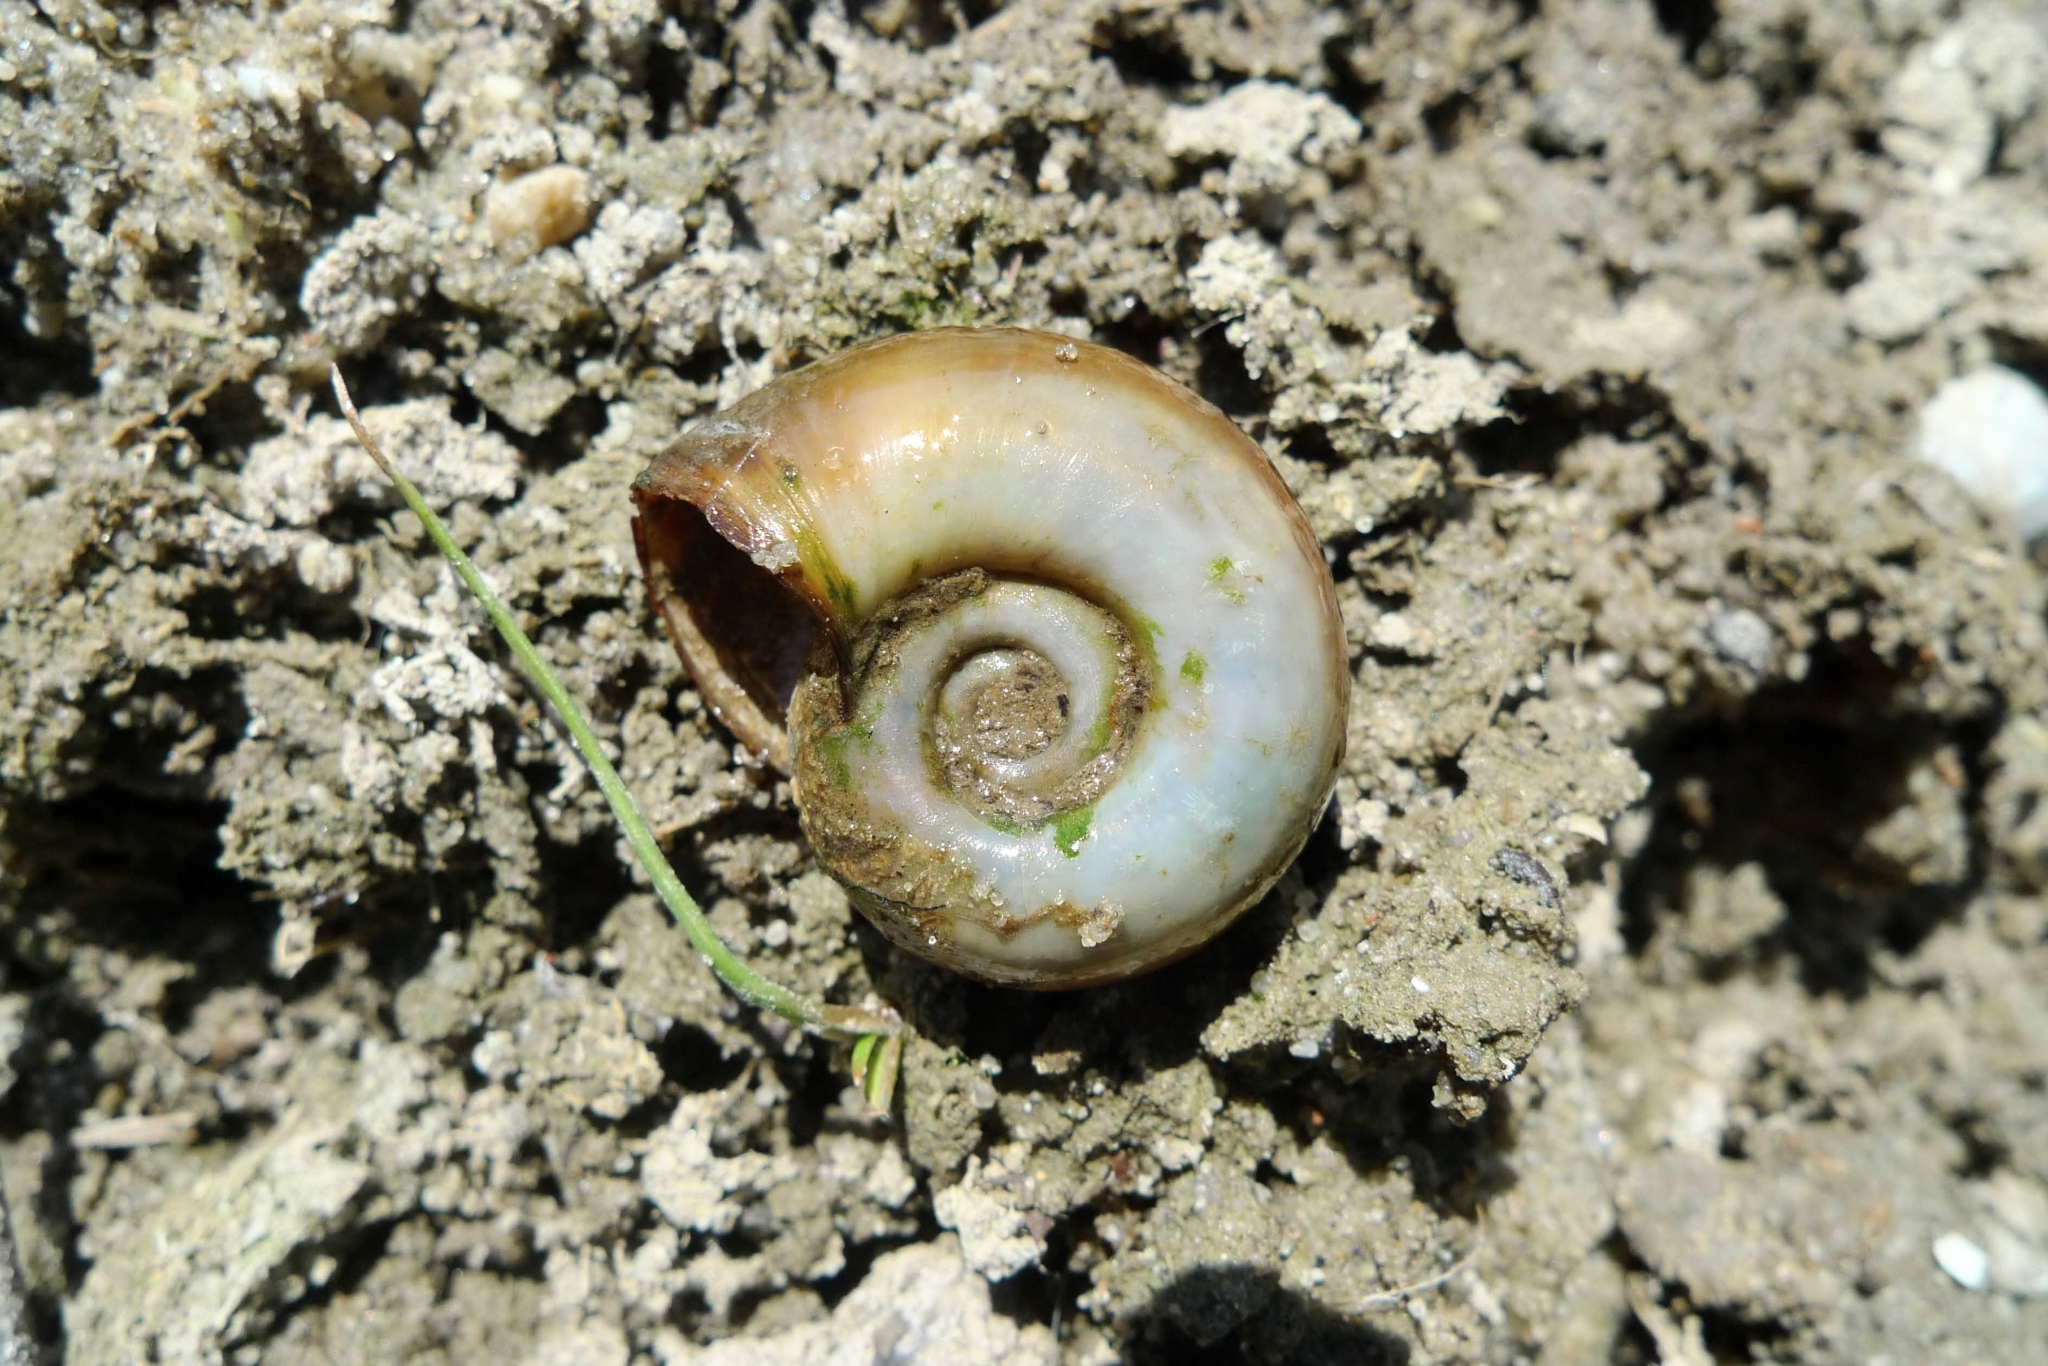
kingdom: Animalia
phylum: Mollusca
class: Gastropoda
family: Planorbidae
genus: Planorbarius
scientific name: Planorbarius corneus
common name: Great ramshorn
